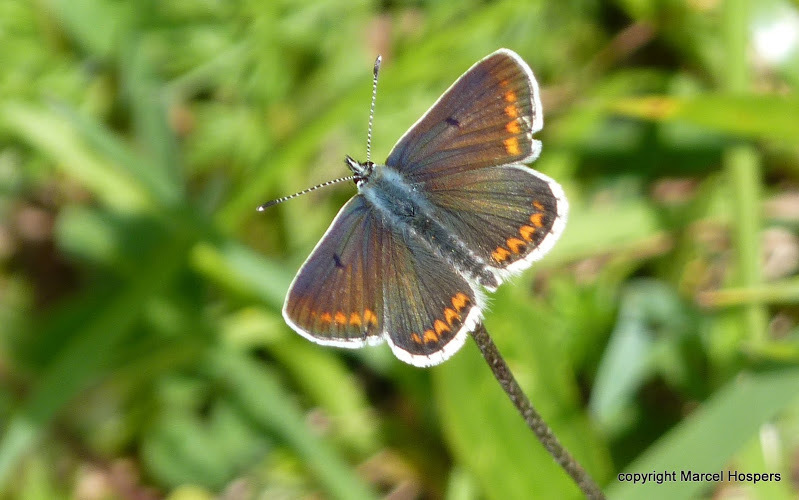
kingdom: Animalia
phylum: Arthropoda
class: Insecta
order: Lepidoptera
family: Lycaenidae
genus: Aricia
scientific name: Aricia agestis
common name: Brown argus
